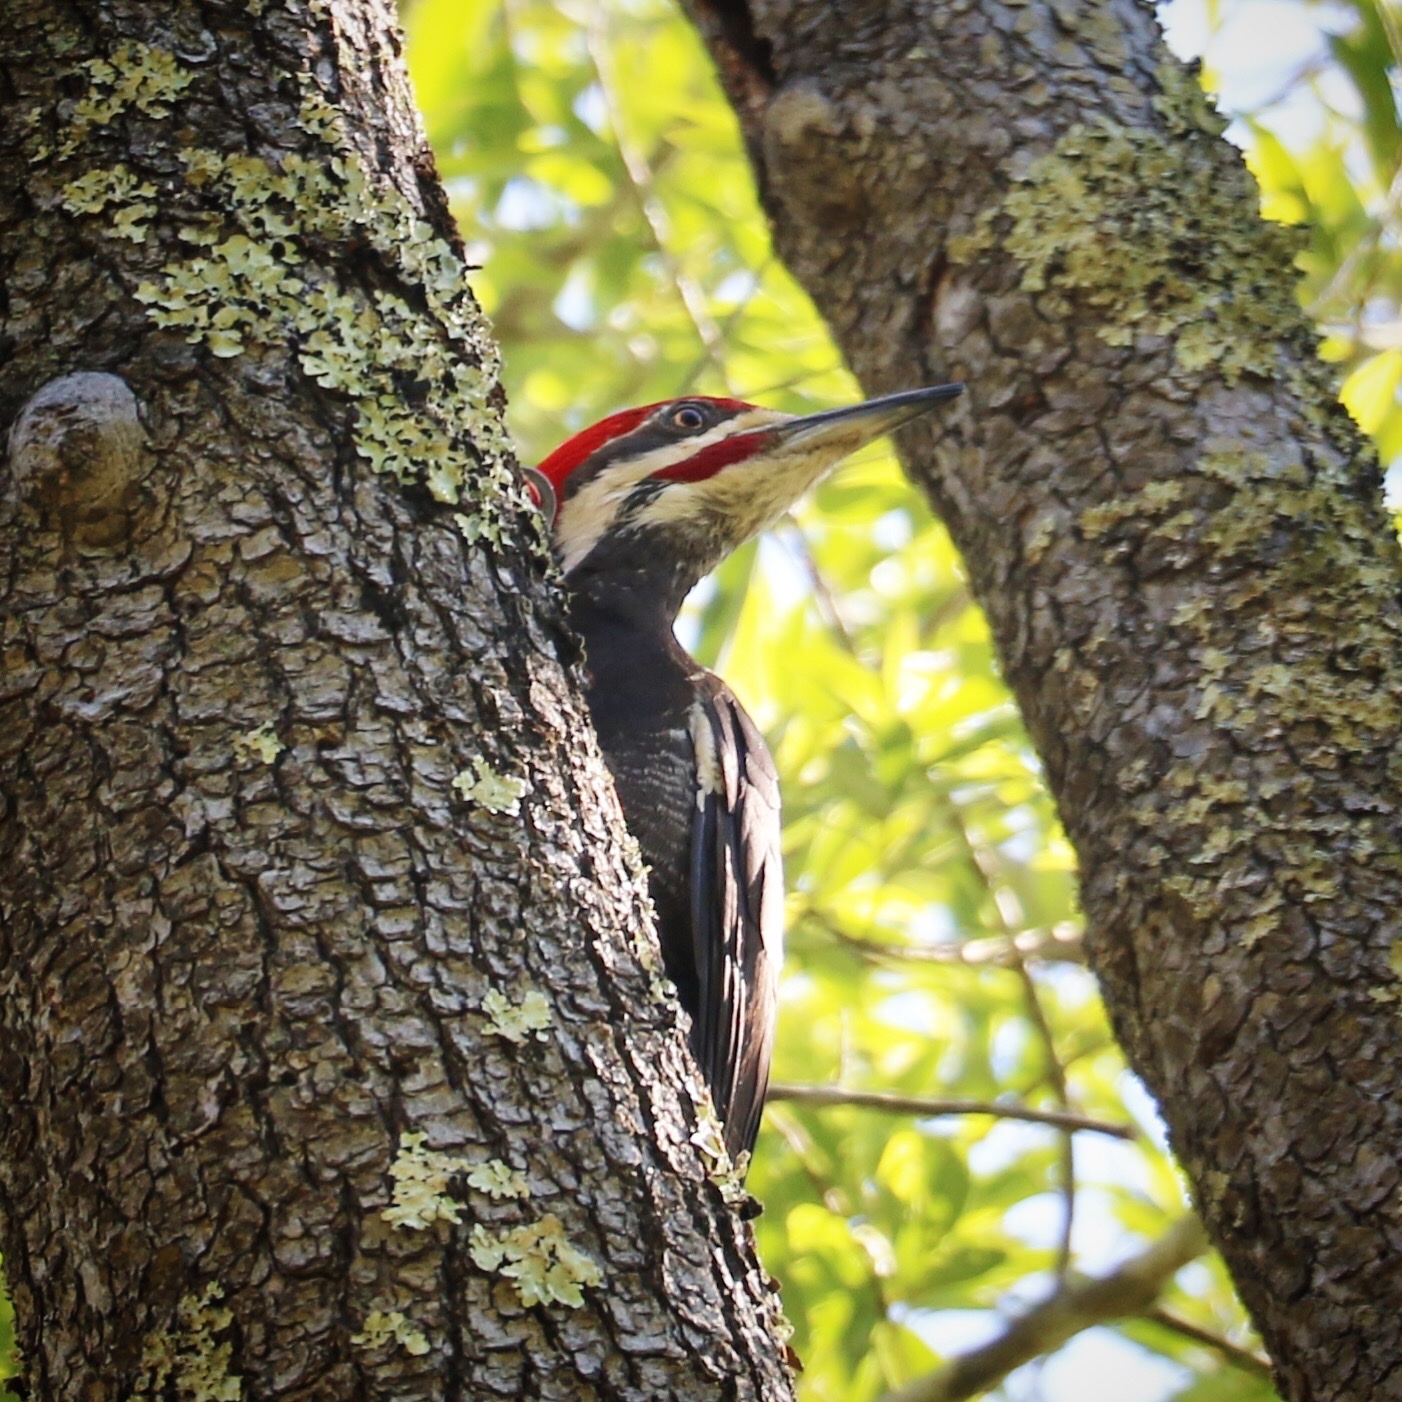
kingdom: Animalia
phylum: Chordata
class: Aves
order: Piciformes
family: Picidae
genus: Dryocopus
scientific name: Dryocopus pileatus
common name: Pileated woodpecker
